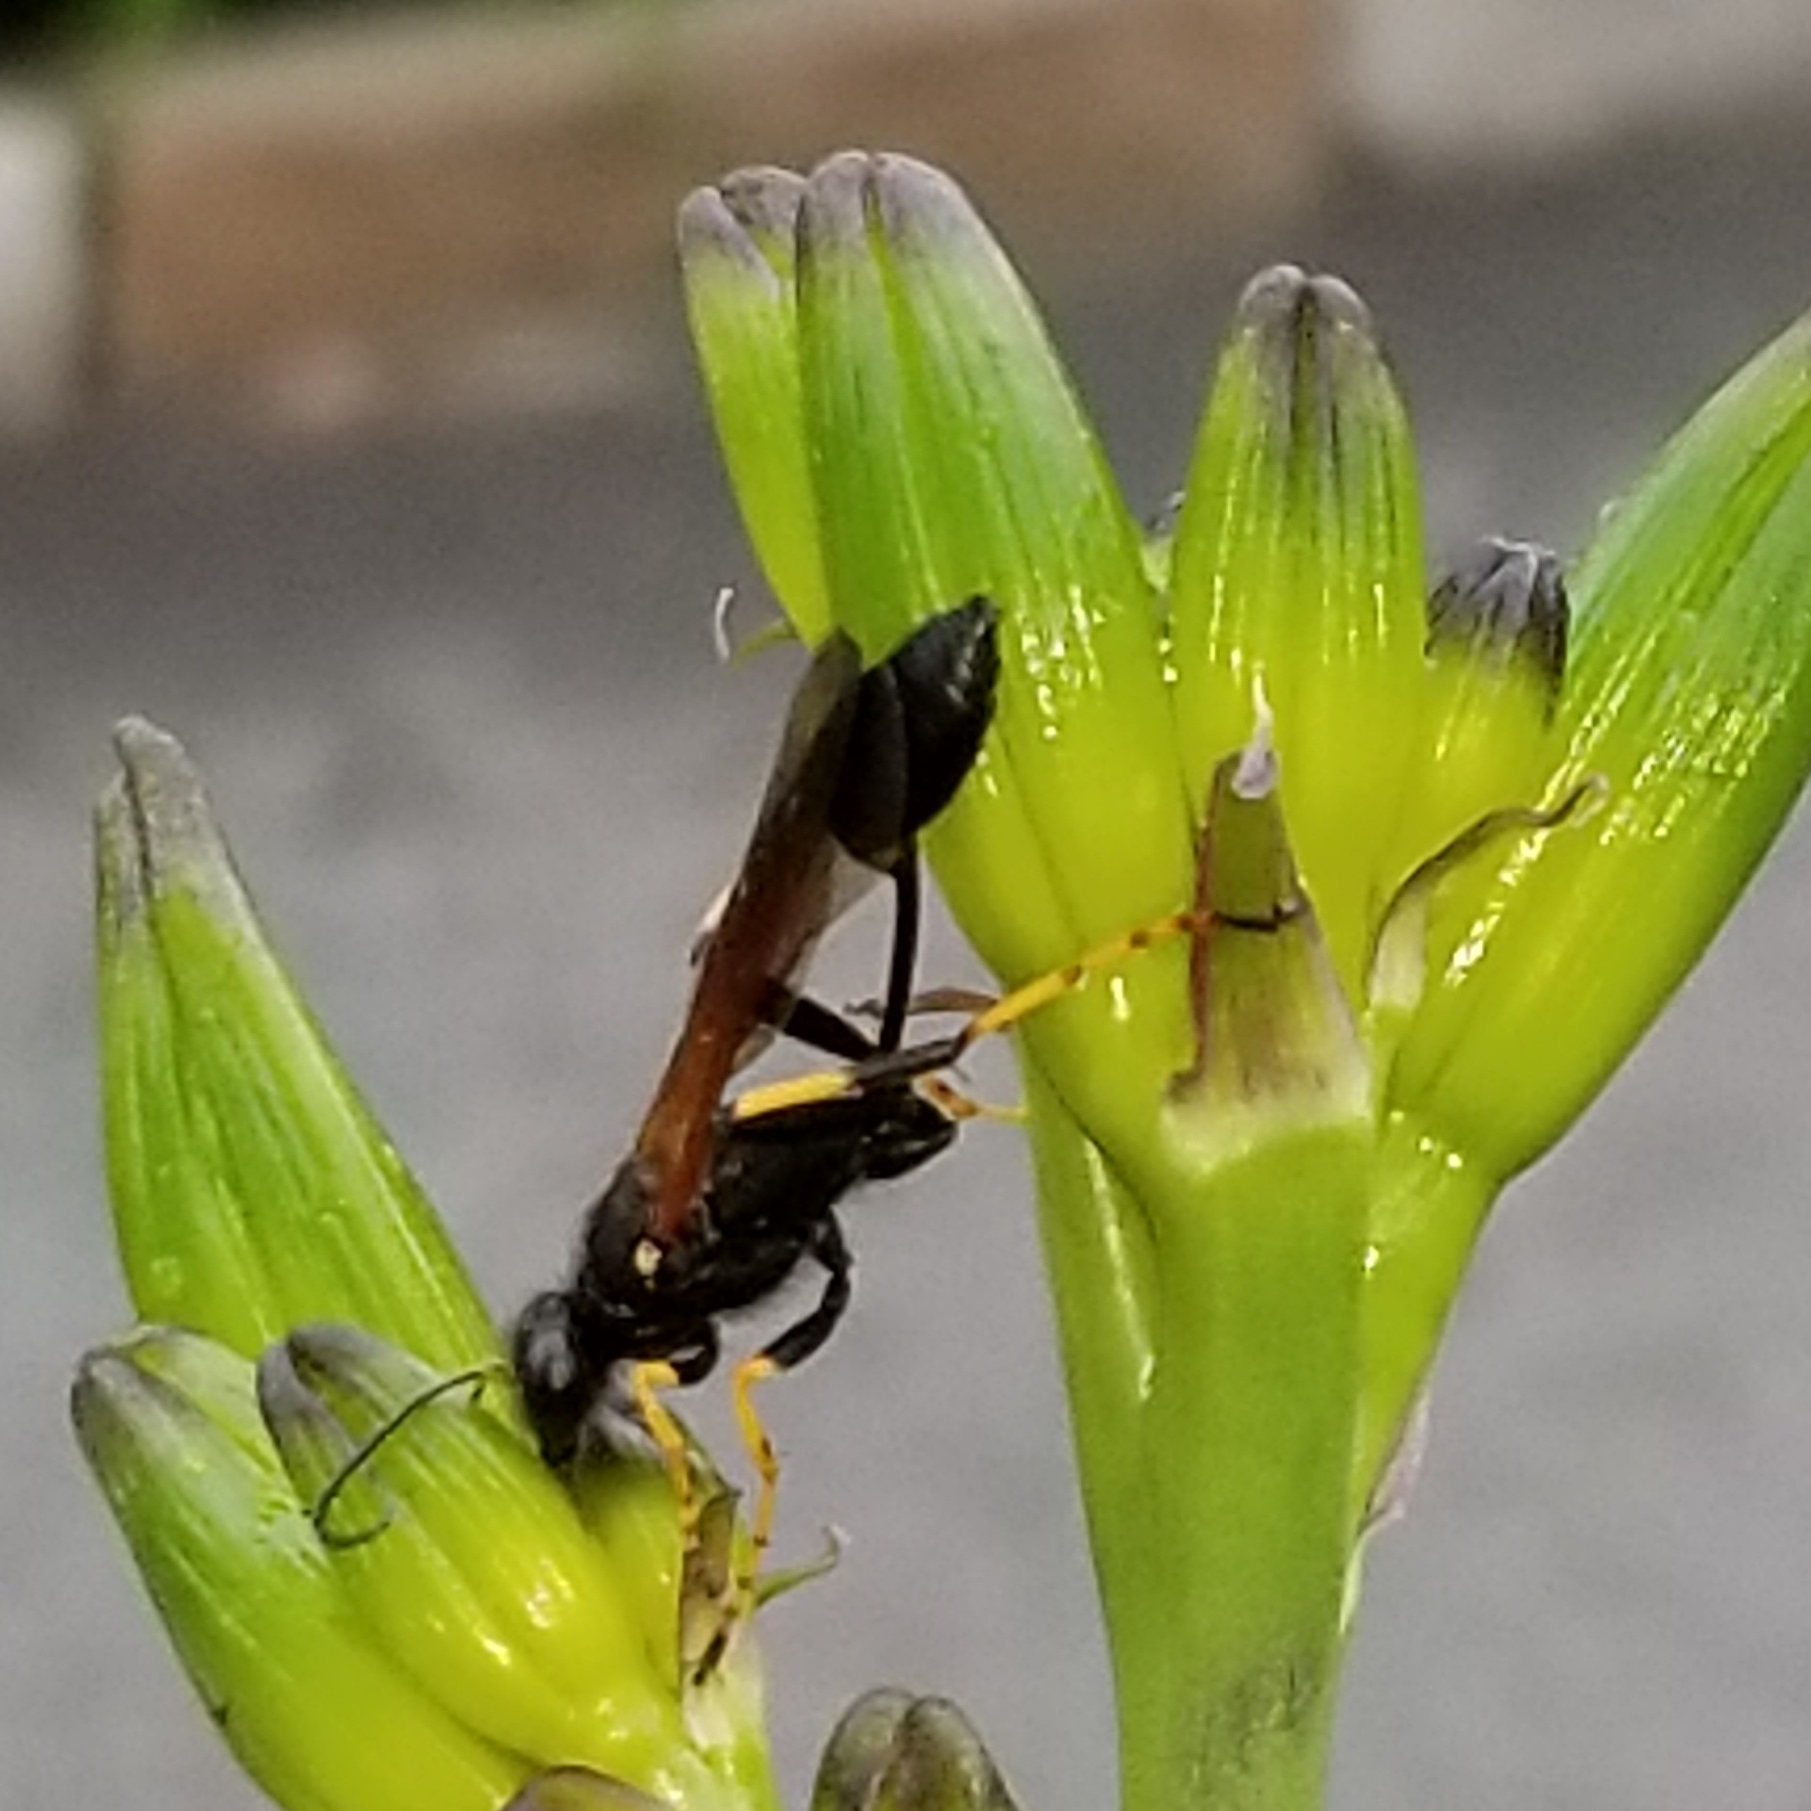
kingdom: Animalia
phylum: Arthropoda
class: Insecta
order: Hymenoptera
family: Sphecidae
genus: Sceliphron
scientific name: Sceliphron caementarium
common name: Mud dauber
